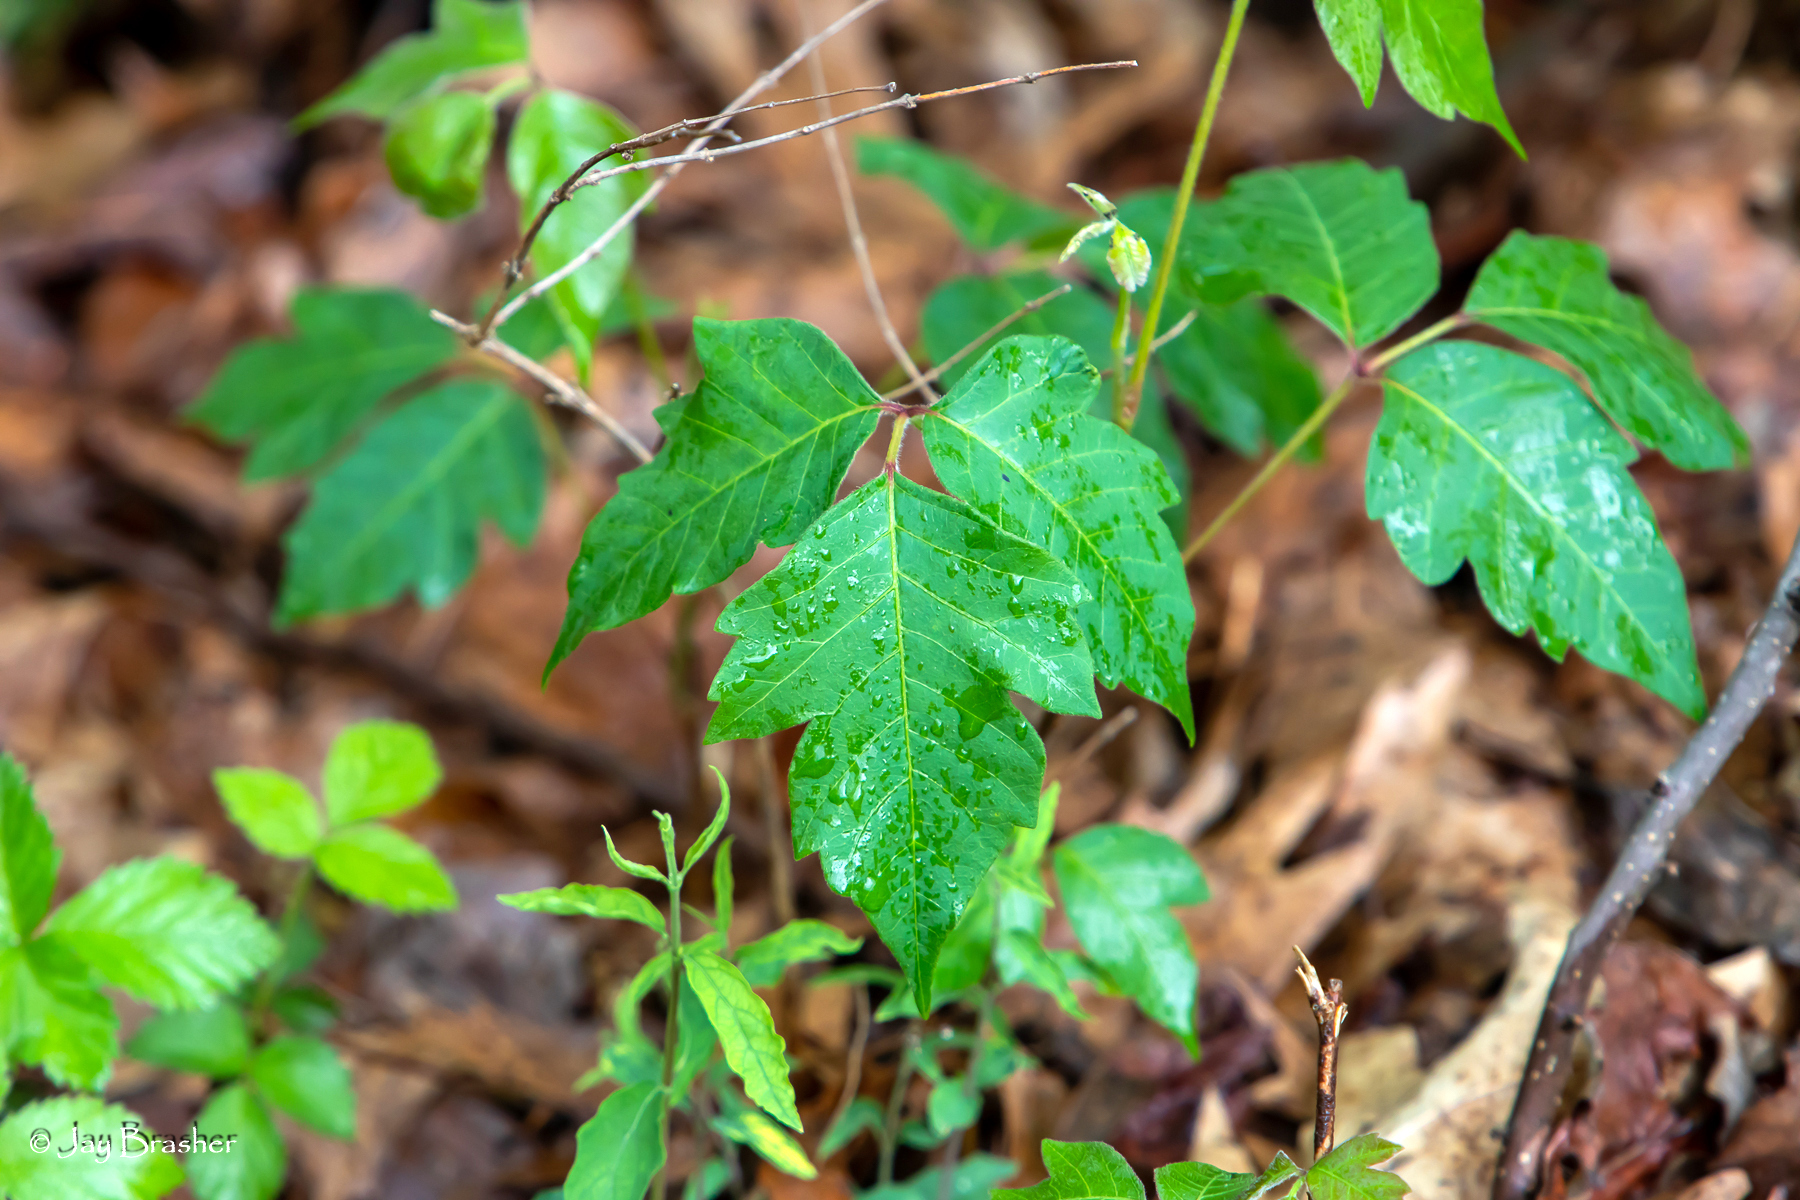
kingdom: Plantae
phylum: Tracheophyta
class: Magnoliopsida
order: Sapindales
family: Anacardiaceae
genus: Toxicodendron
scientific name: Toxicodendron radicans
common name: Poison ivy
